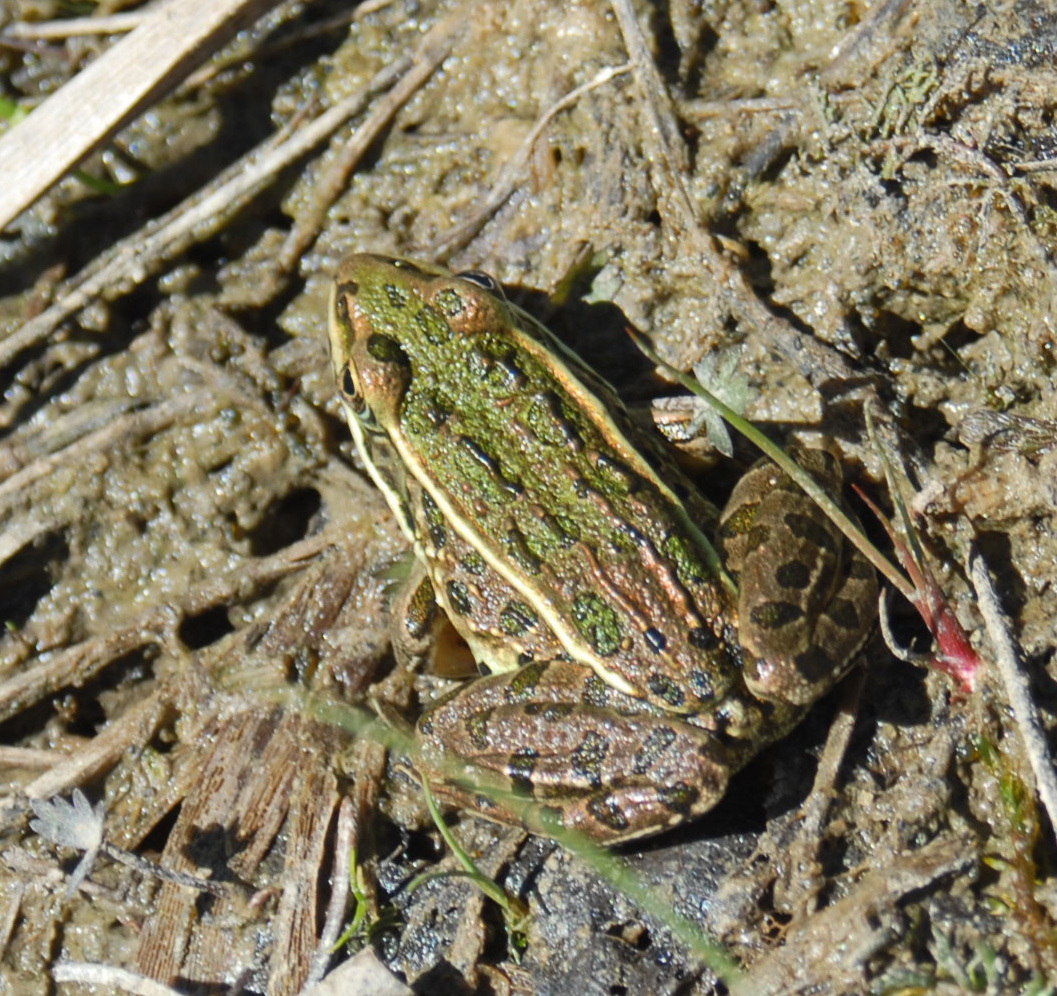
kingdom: Animalia
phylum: Chordata
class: Amphibia
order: Anura
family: Ranidae
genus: Lithobates
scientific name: Lithobates pipiens
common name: Northern leopard frog
